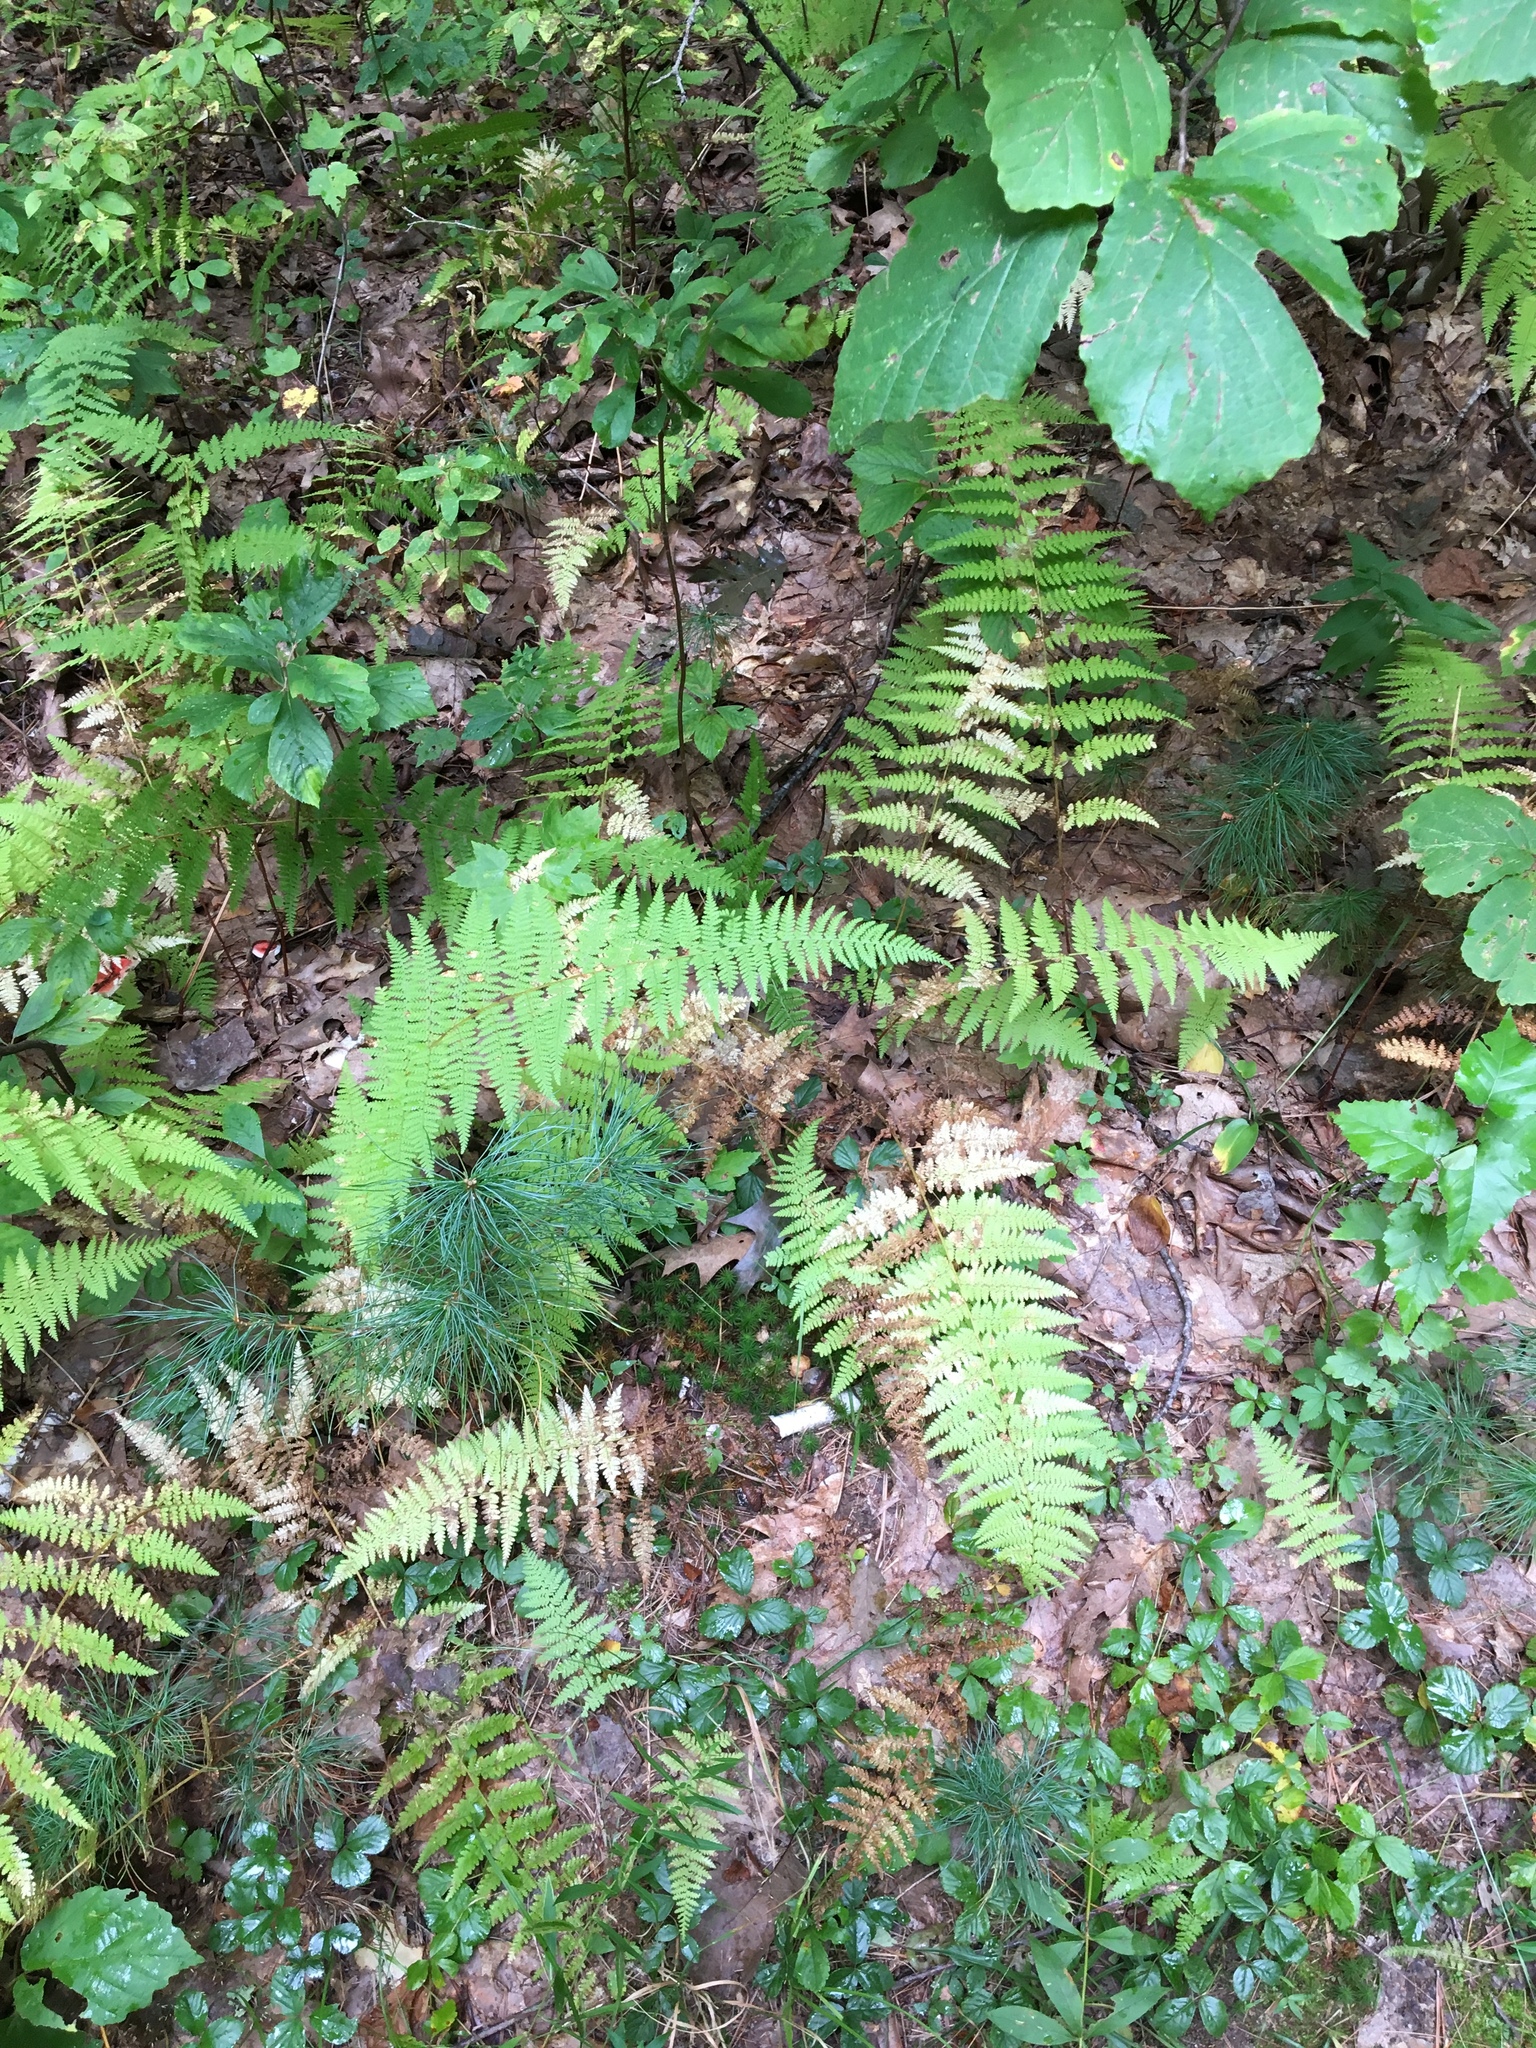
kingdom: Plantae
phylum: Tracheophyta
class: Polypodiopsida
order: Polypodiales
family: Dennstaedtiaceae
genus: Sitobolium
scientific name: Sitobolium punctilobum
